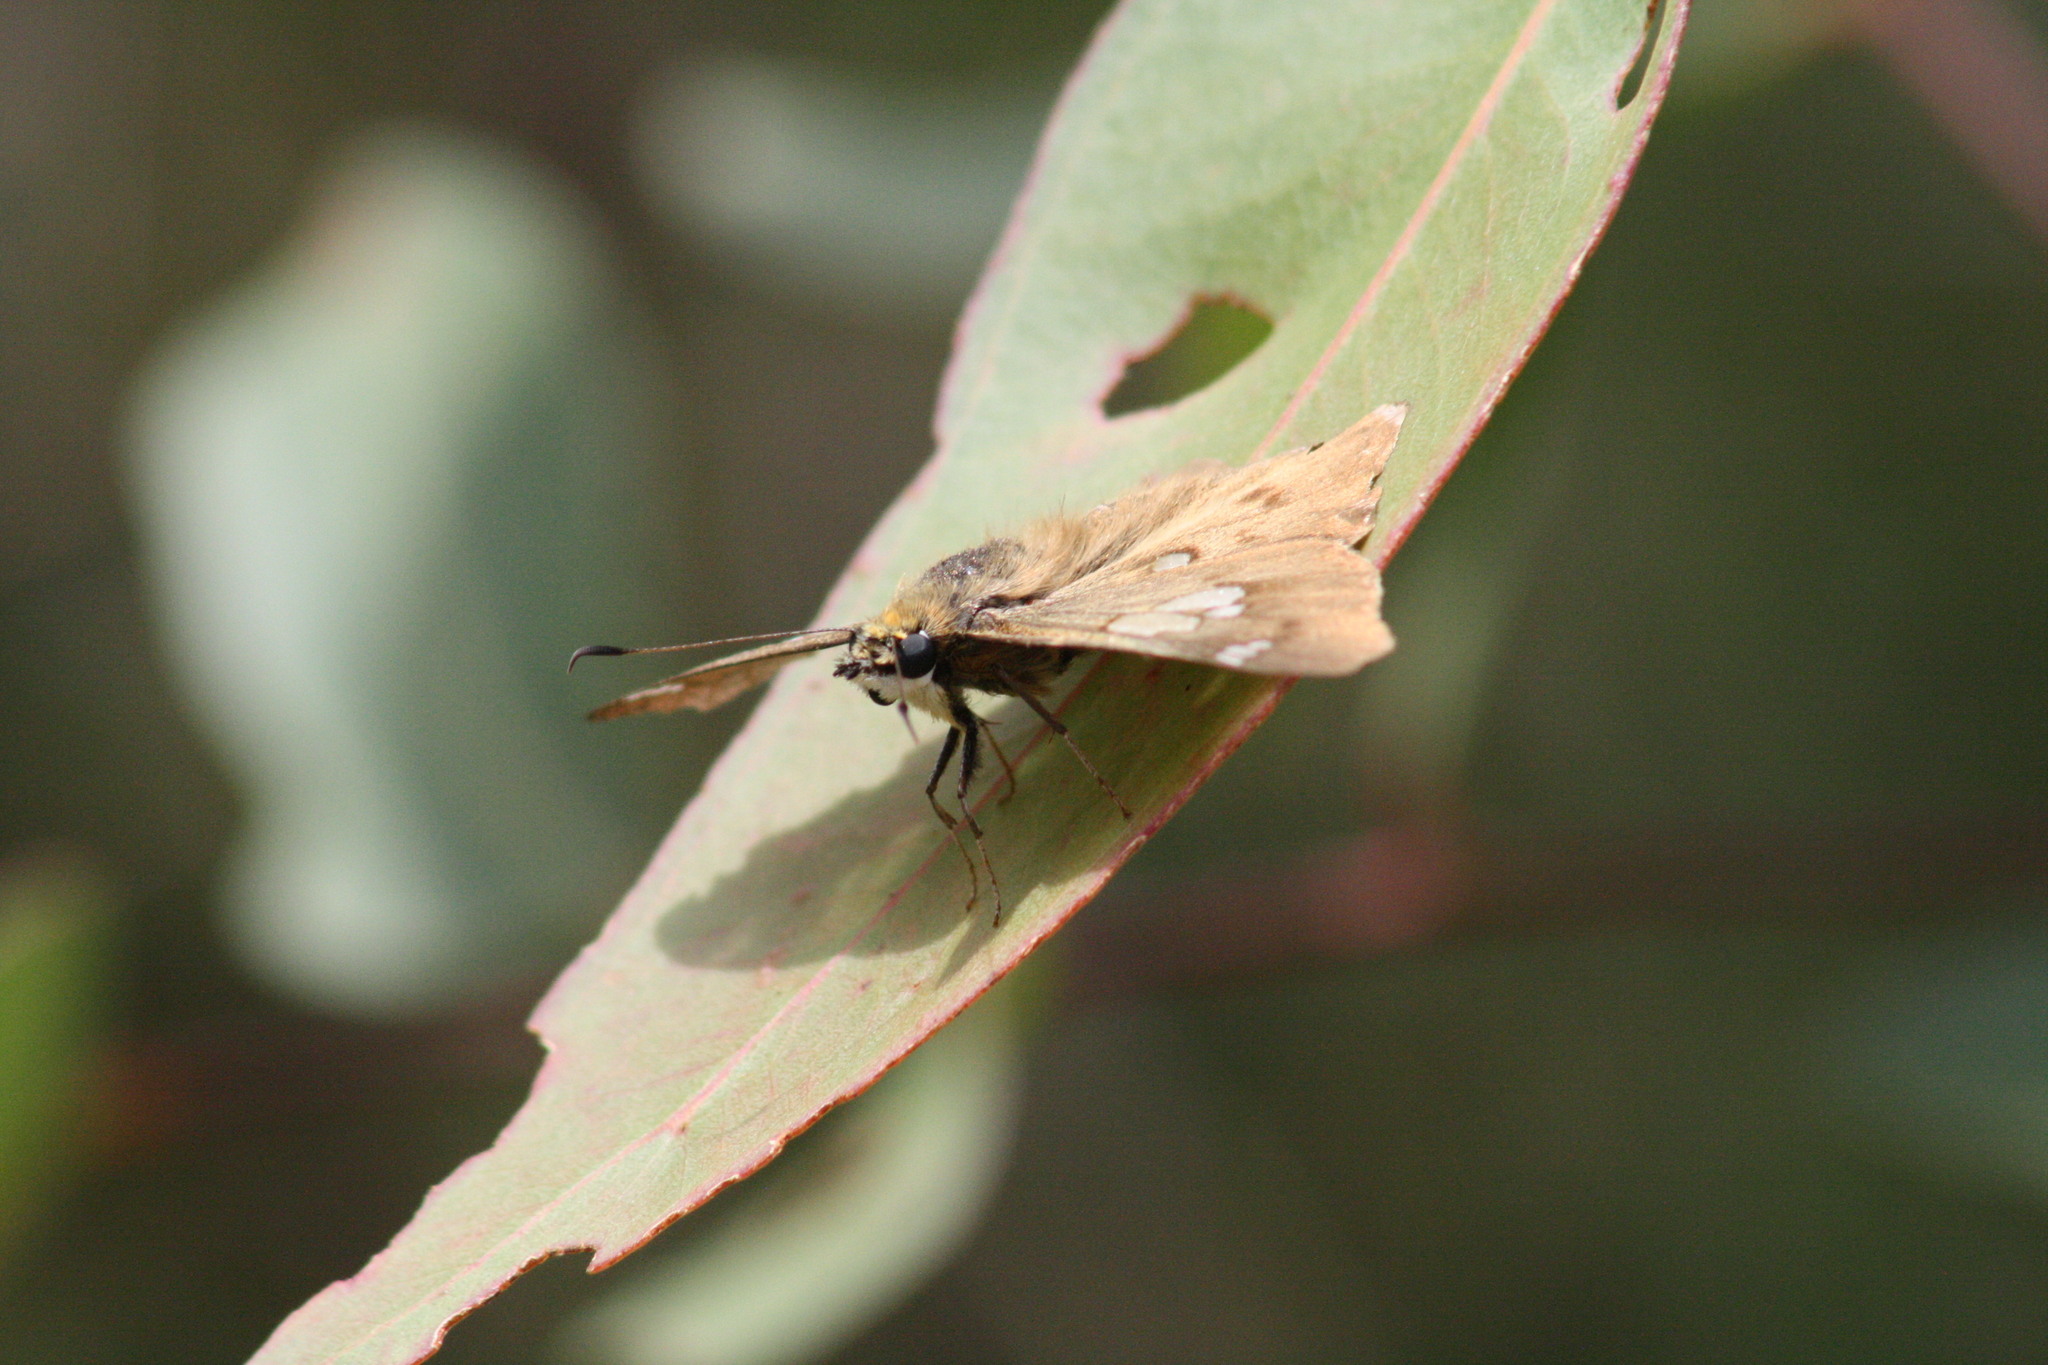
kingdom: Animalia
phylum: Arthropoda
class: Insecta
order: Lepidoptera
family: Hesperiidae
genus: Netrocoryne
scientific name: Netrocoryne repanda
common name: Bronze flat
